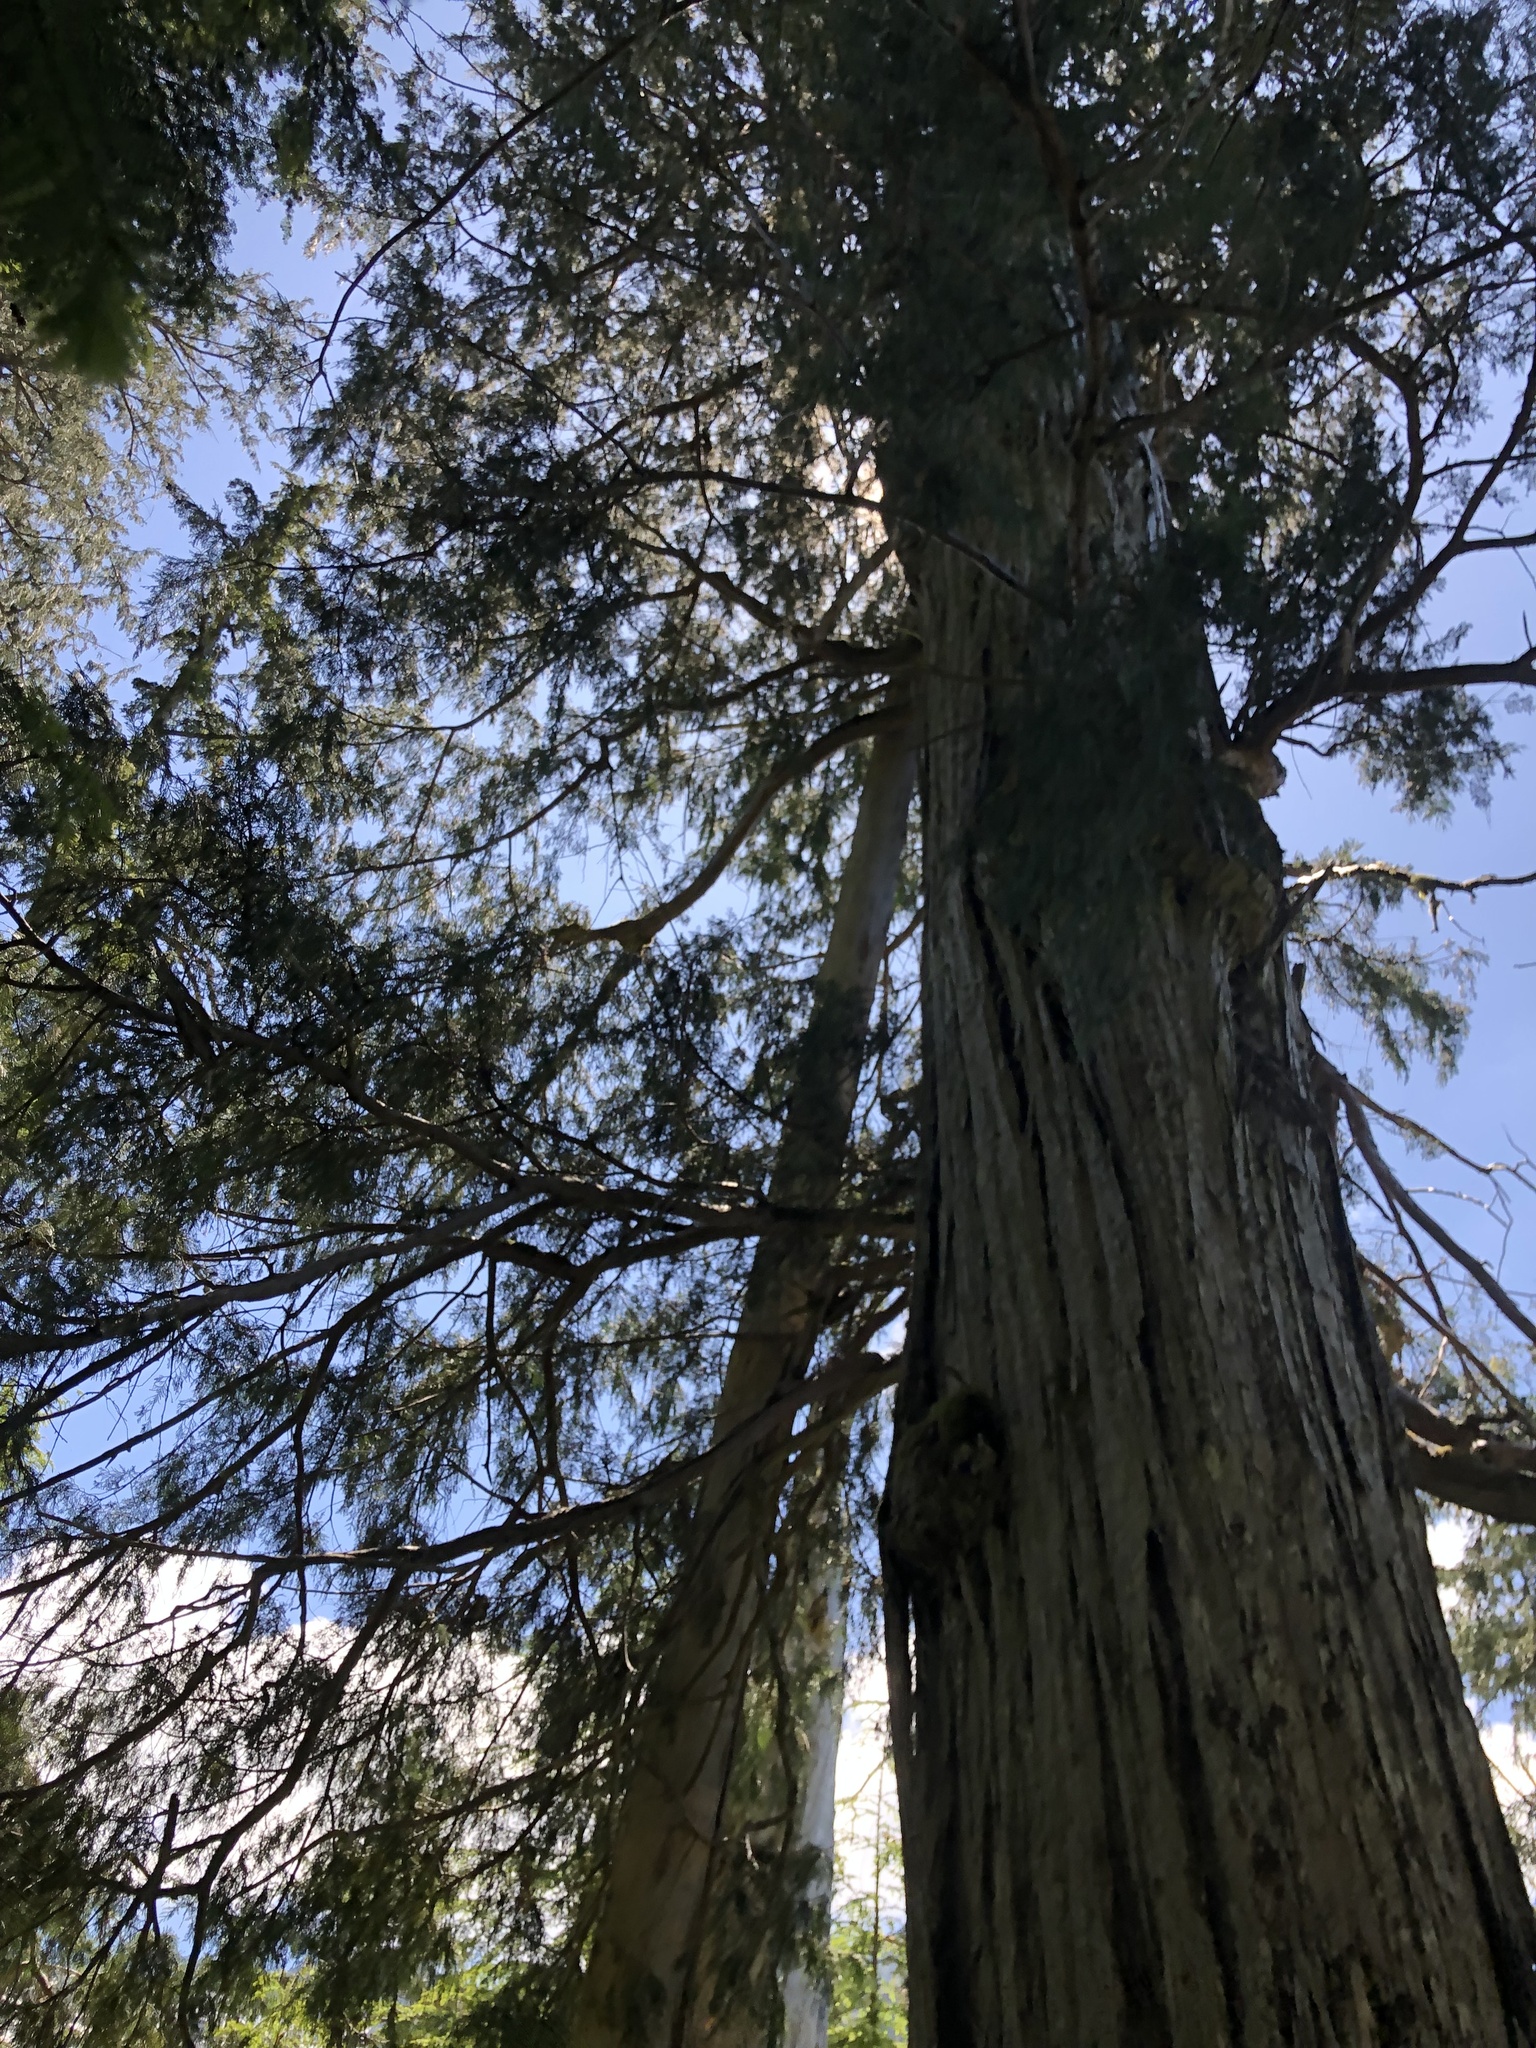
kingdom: Plantae
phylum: Tracheophyta
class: Pinopsida
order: Pinales
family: Cupressaceae
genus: Xanthocyparis
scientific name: Xanthocyparis nootkatensis
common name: Nootka cypress
